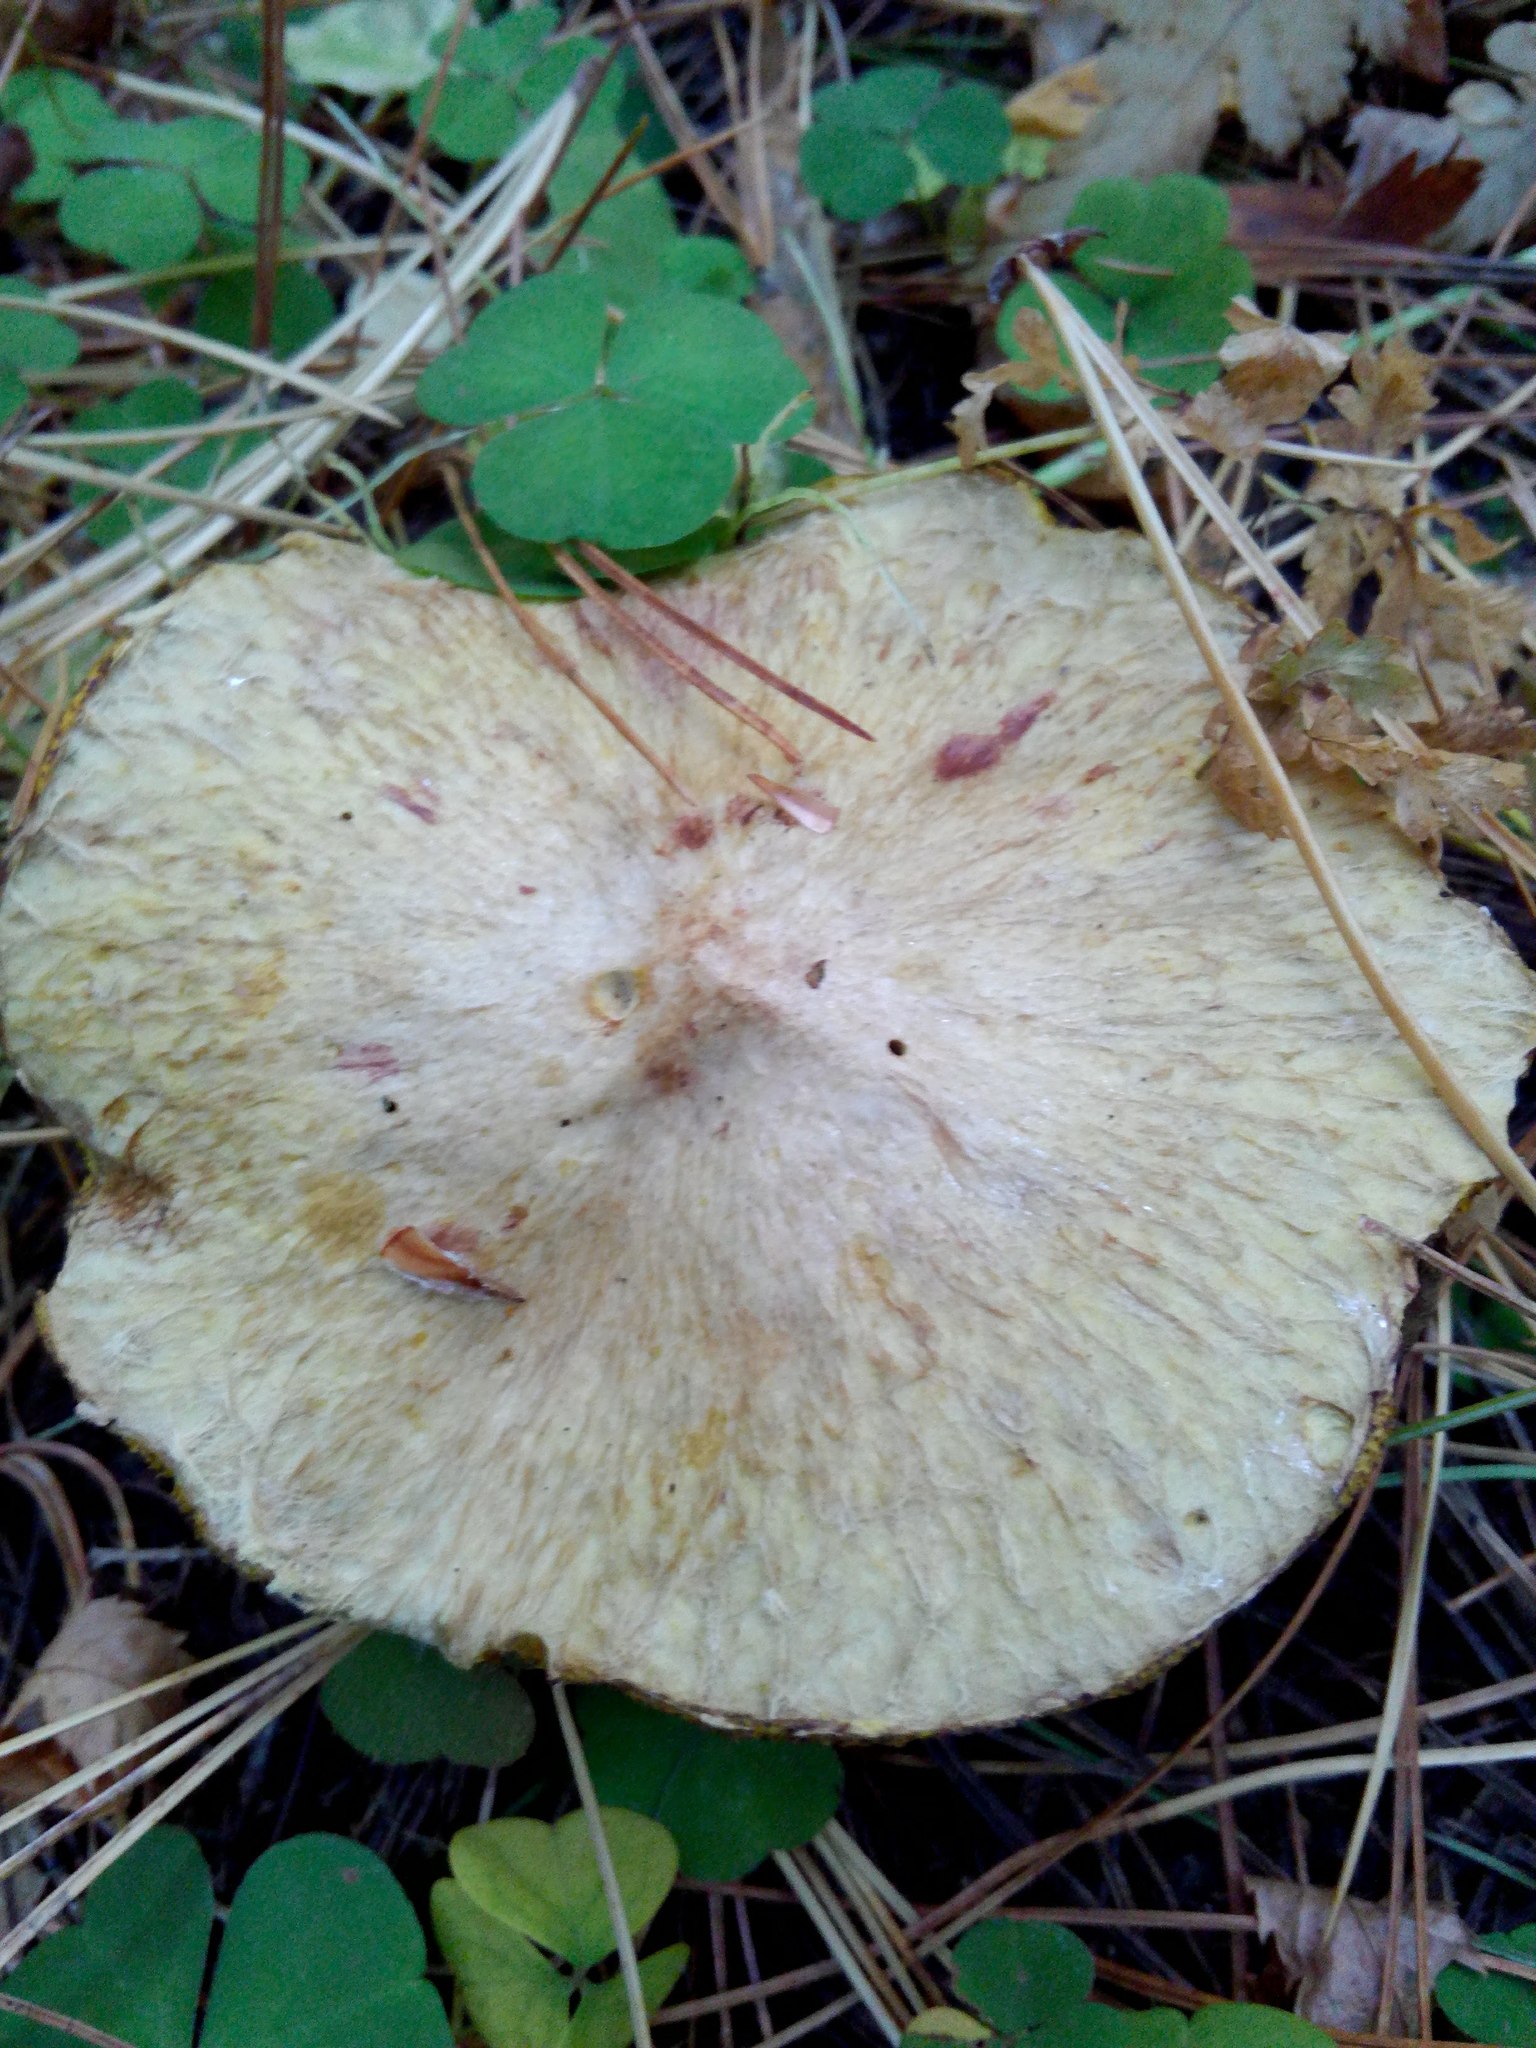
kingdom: Fungi
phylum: Basidiomycota
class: Agaricomycetes
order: Boletales
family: Suillaceae
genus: Suillus
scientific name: Suillus americanus
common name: Chicken fat mushroom
